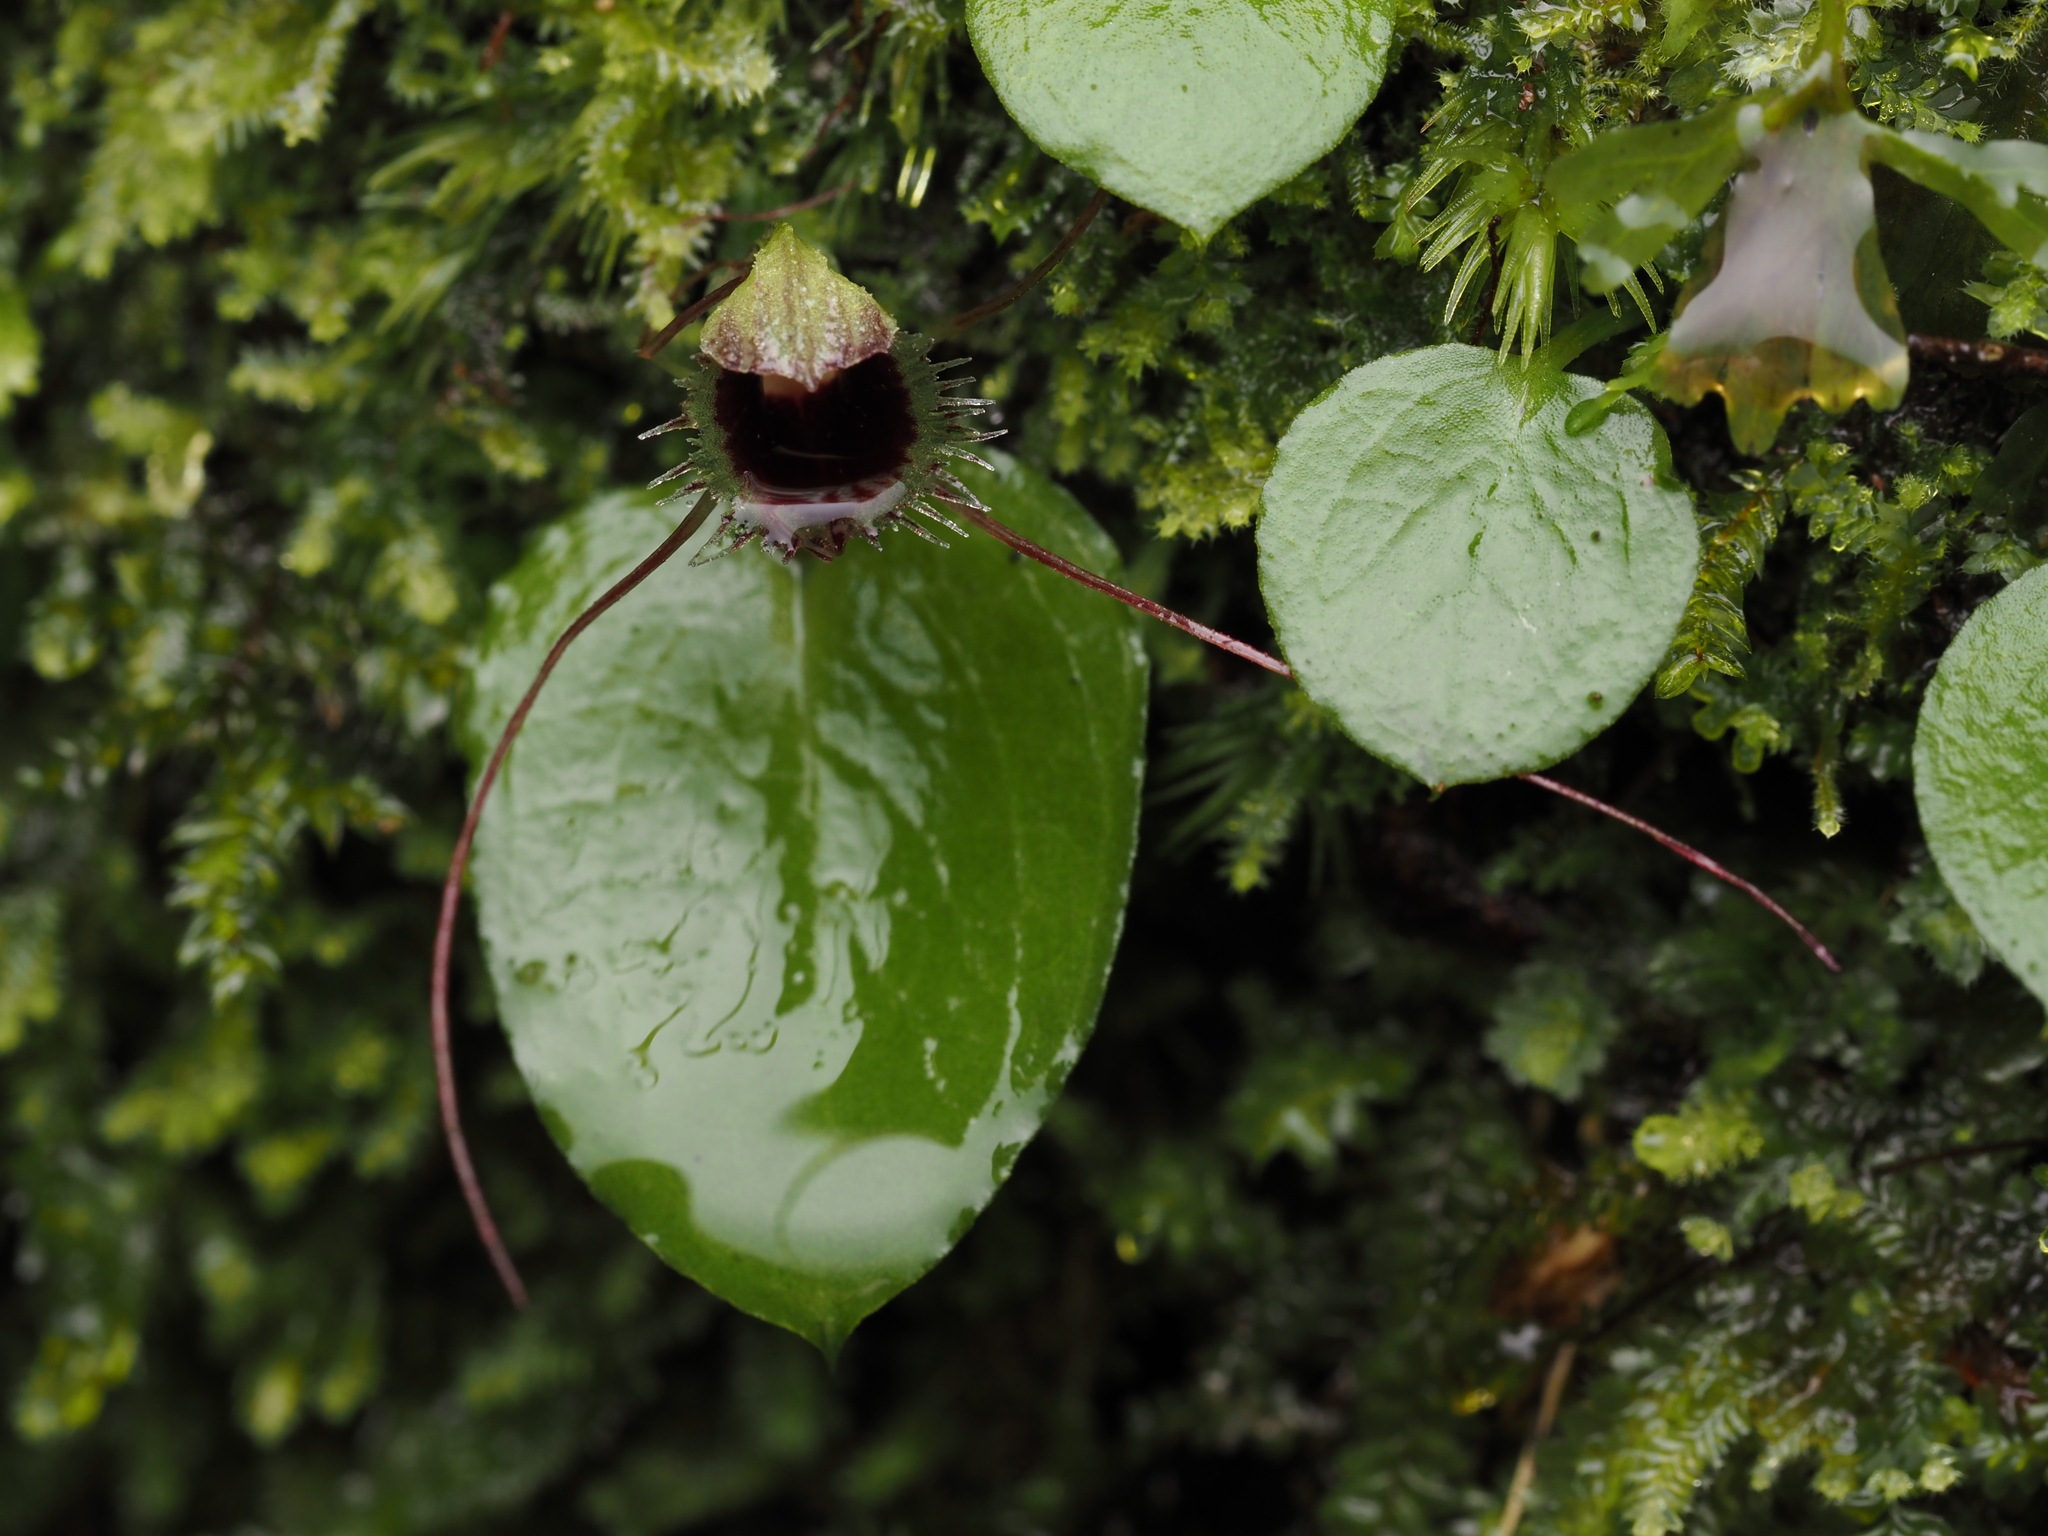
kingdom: Plantae
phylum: Tracheophyta
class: Liliopsida
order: Asparagales
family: Orchidaceae
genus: Corybas
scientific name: Corybas oblongus
